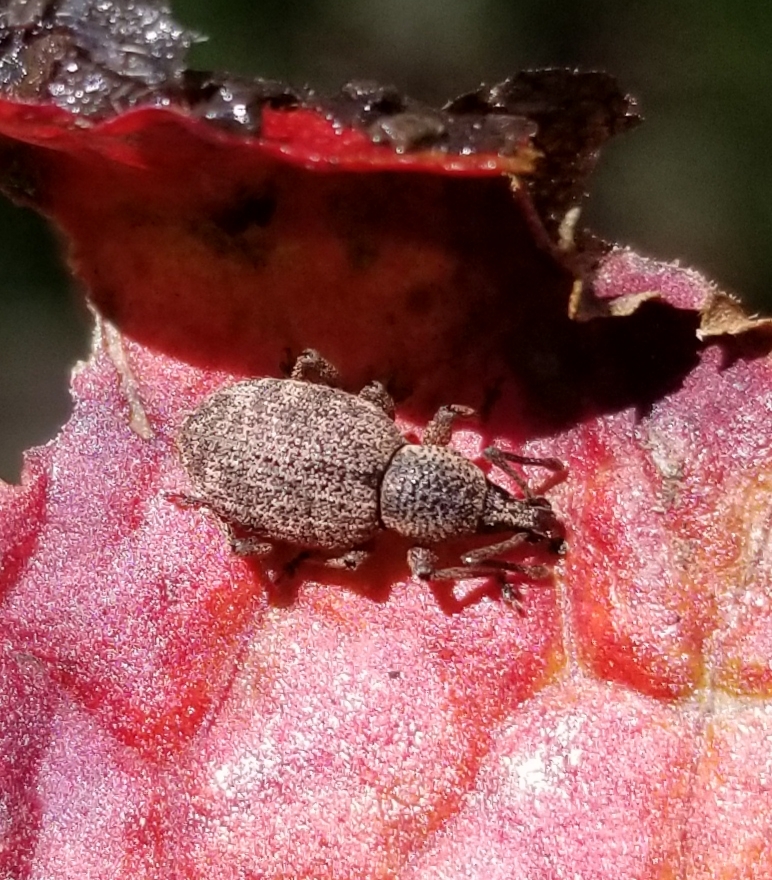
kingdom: Animalia
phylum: Arthropoda
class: Insecta
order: Coleoptera
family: Curculionidae
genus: Otiorhynchus
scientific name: Otiorhynchus singularis
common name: Clay-coloured weevil
